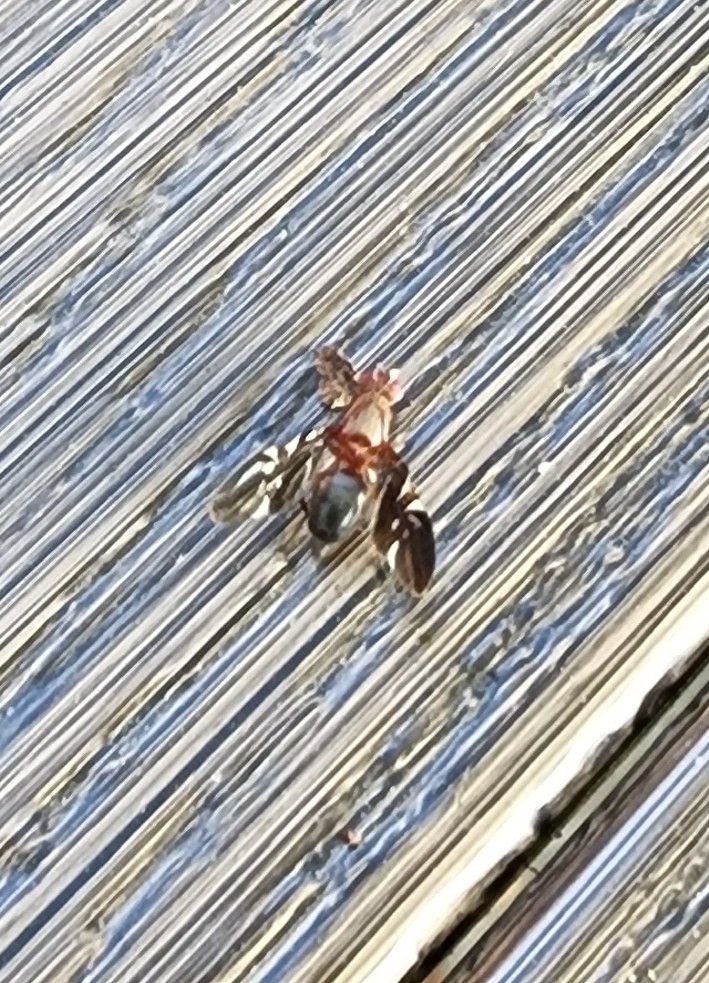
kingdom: Animalia
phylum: Arthropoda
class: Insecta
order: Diptera
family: Ulidiidae
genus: Delphinia
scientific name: Delphinia picta
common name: Common picture-winged fly
